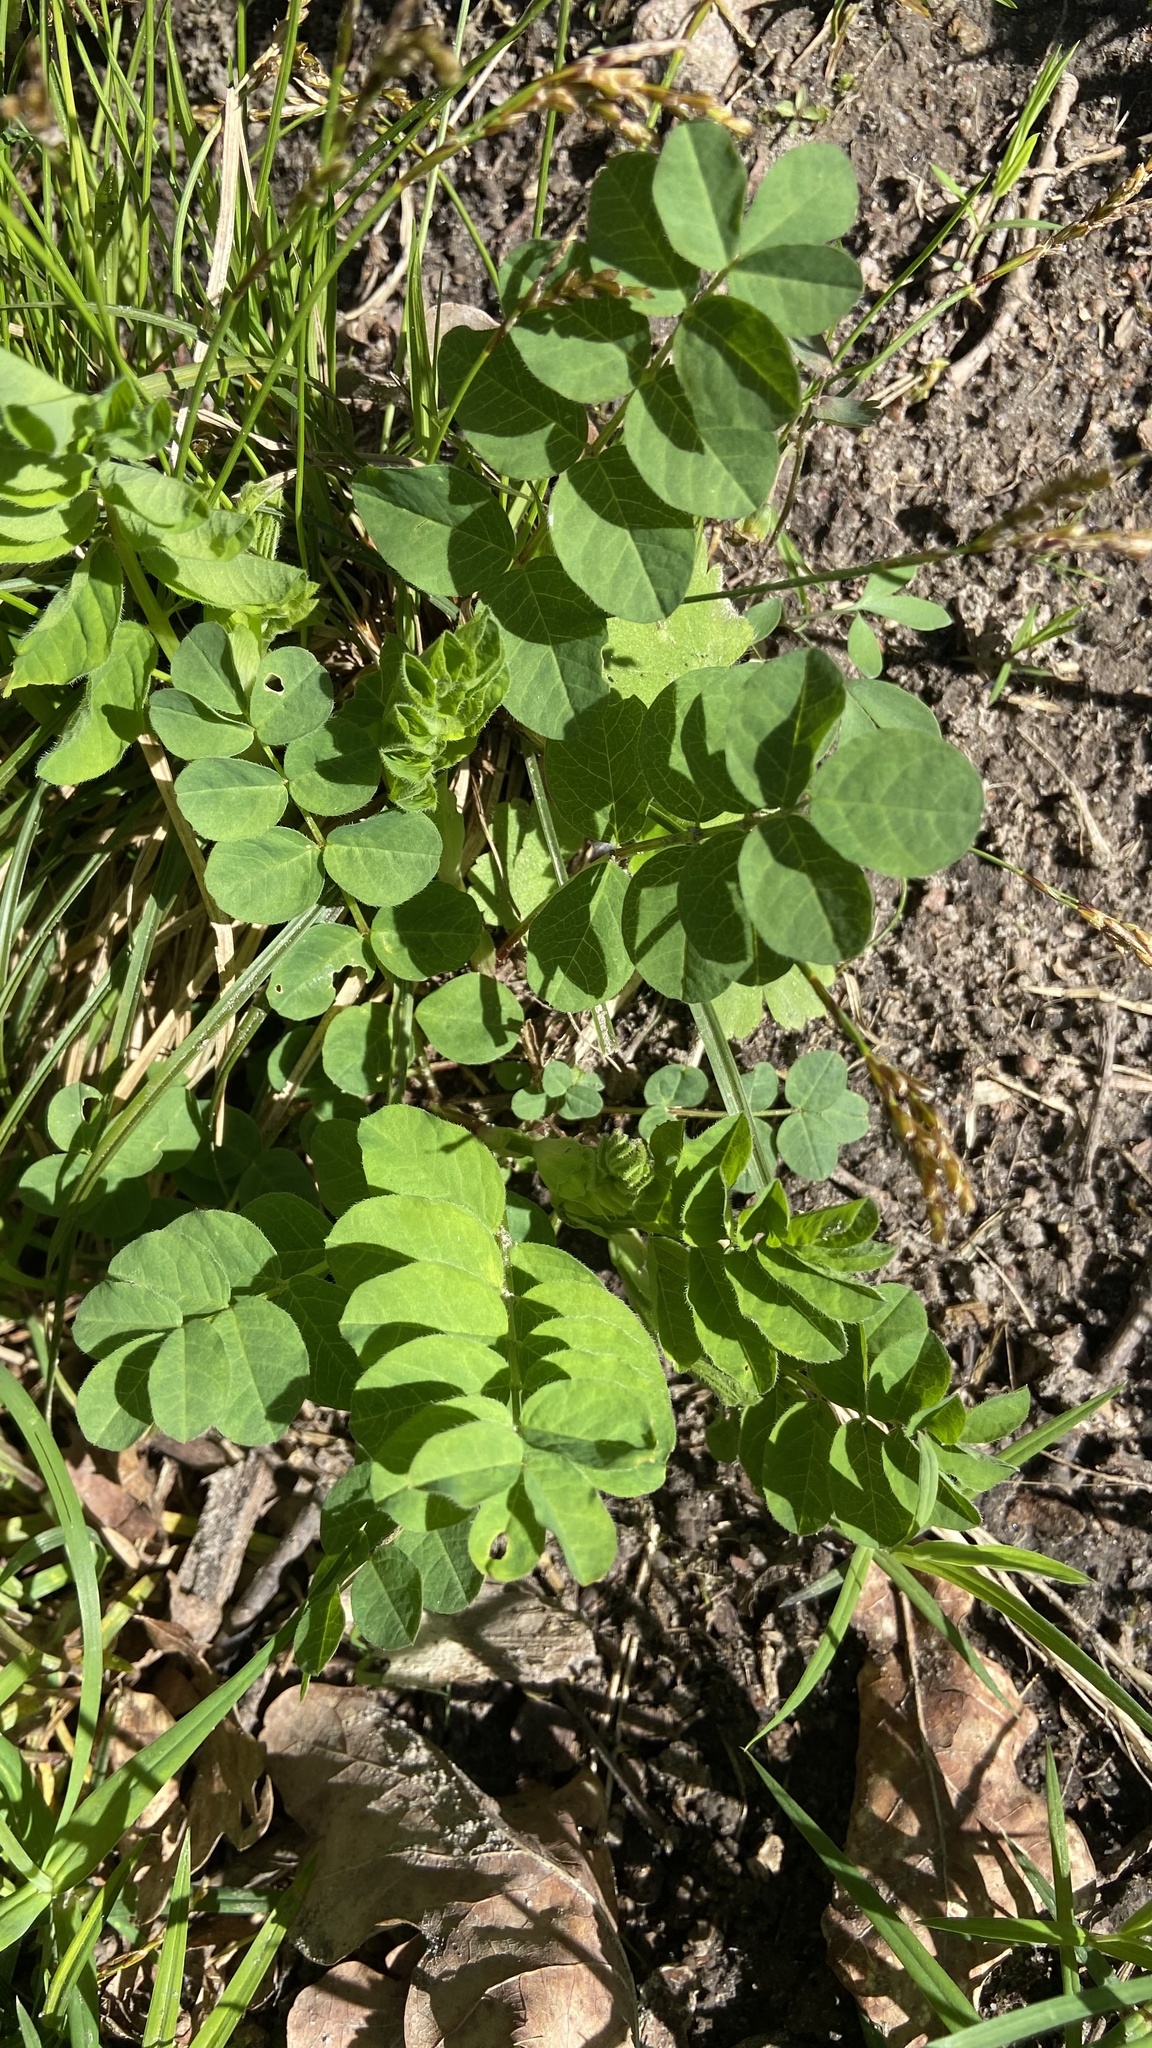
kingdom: Plantae
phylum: Tracheophyta
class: Magnoliopsida
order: Fabales
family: Fabaceae
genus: Astragalus
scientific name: Astragalus glycyphyllos
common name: Wild liquorice
